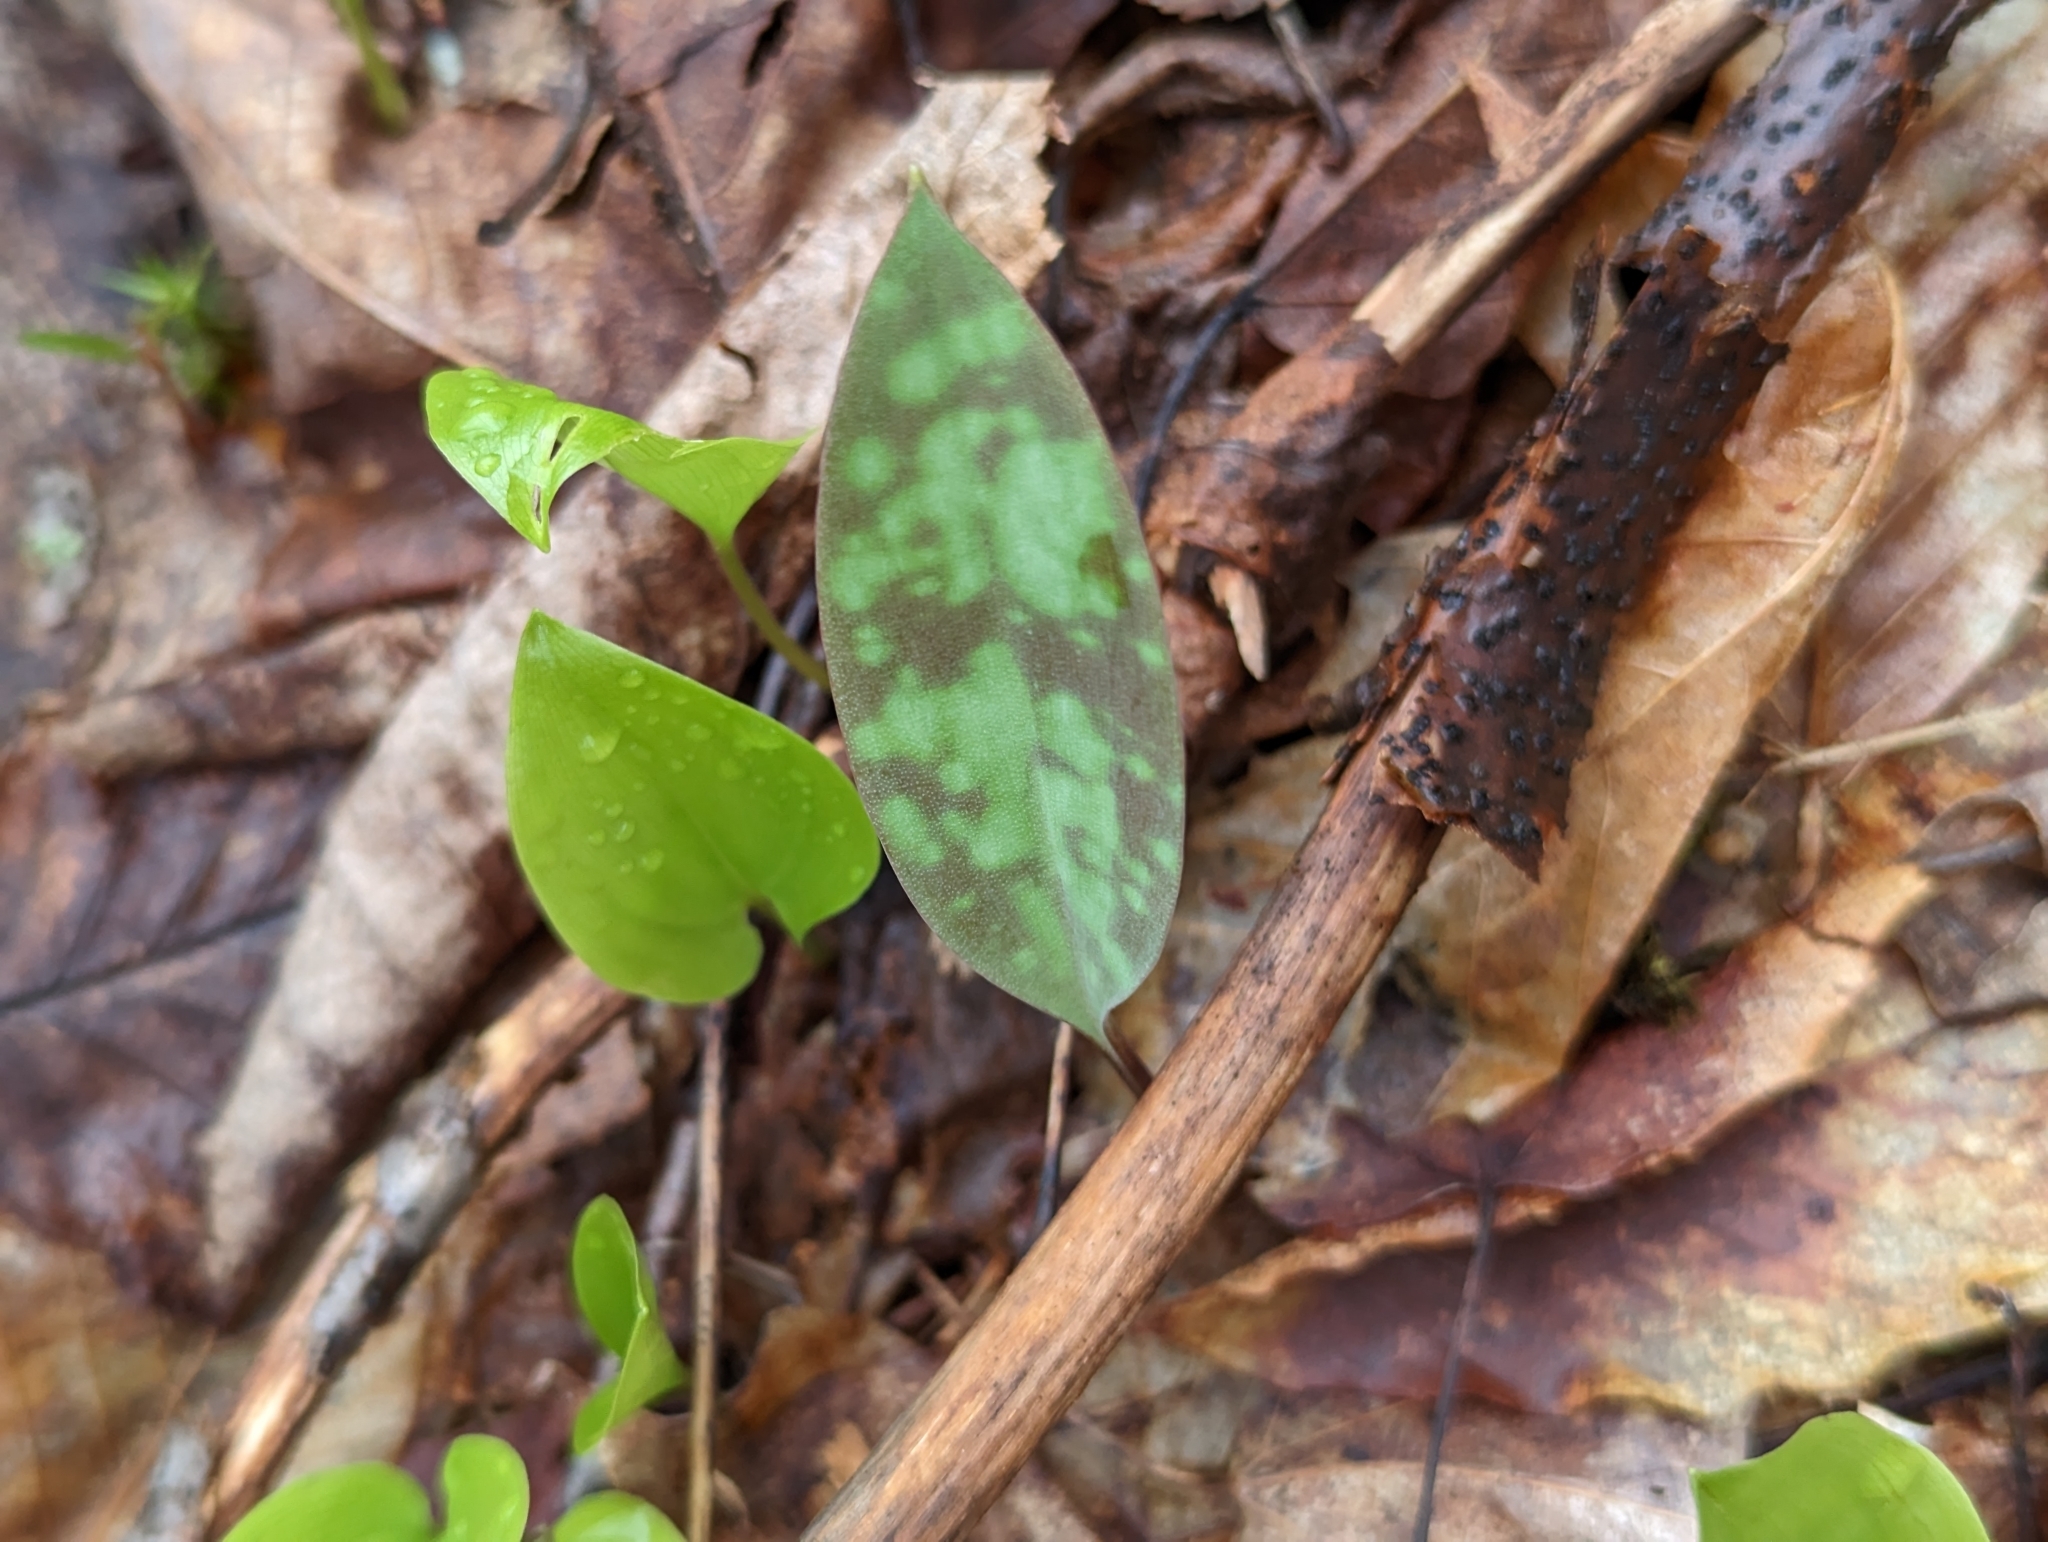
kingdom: Plantae
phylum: Tracheophyta
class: Liliopsida
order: Liliales
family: Liliaceae
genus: Erythronium
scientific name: Erythronium americanum
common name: Yellow adder's-tongue
